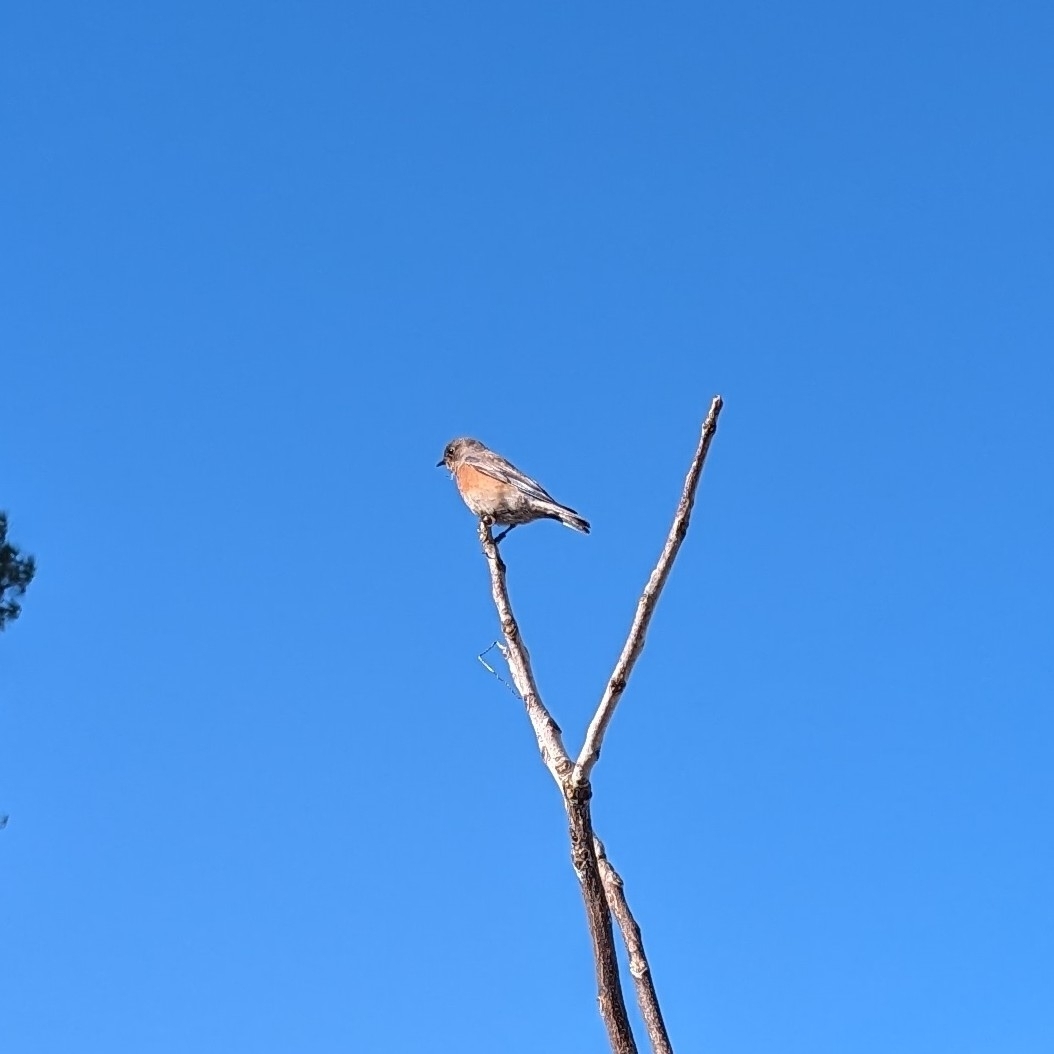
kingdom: Animalia
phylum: Chordata
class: Aves
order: Passeriformes
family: Turdidae
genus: Sialia
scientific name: Sialia mexicana
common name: Western bluebird
